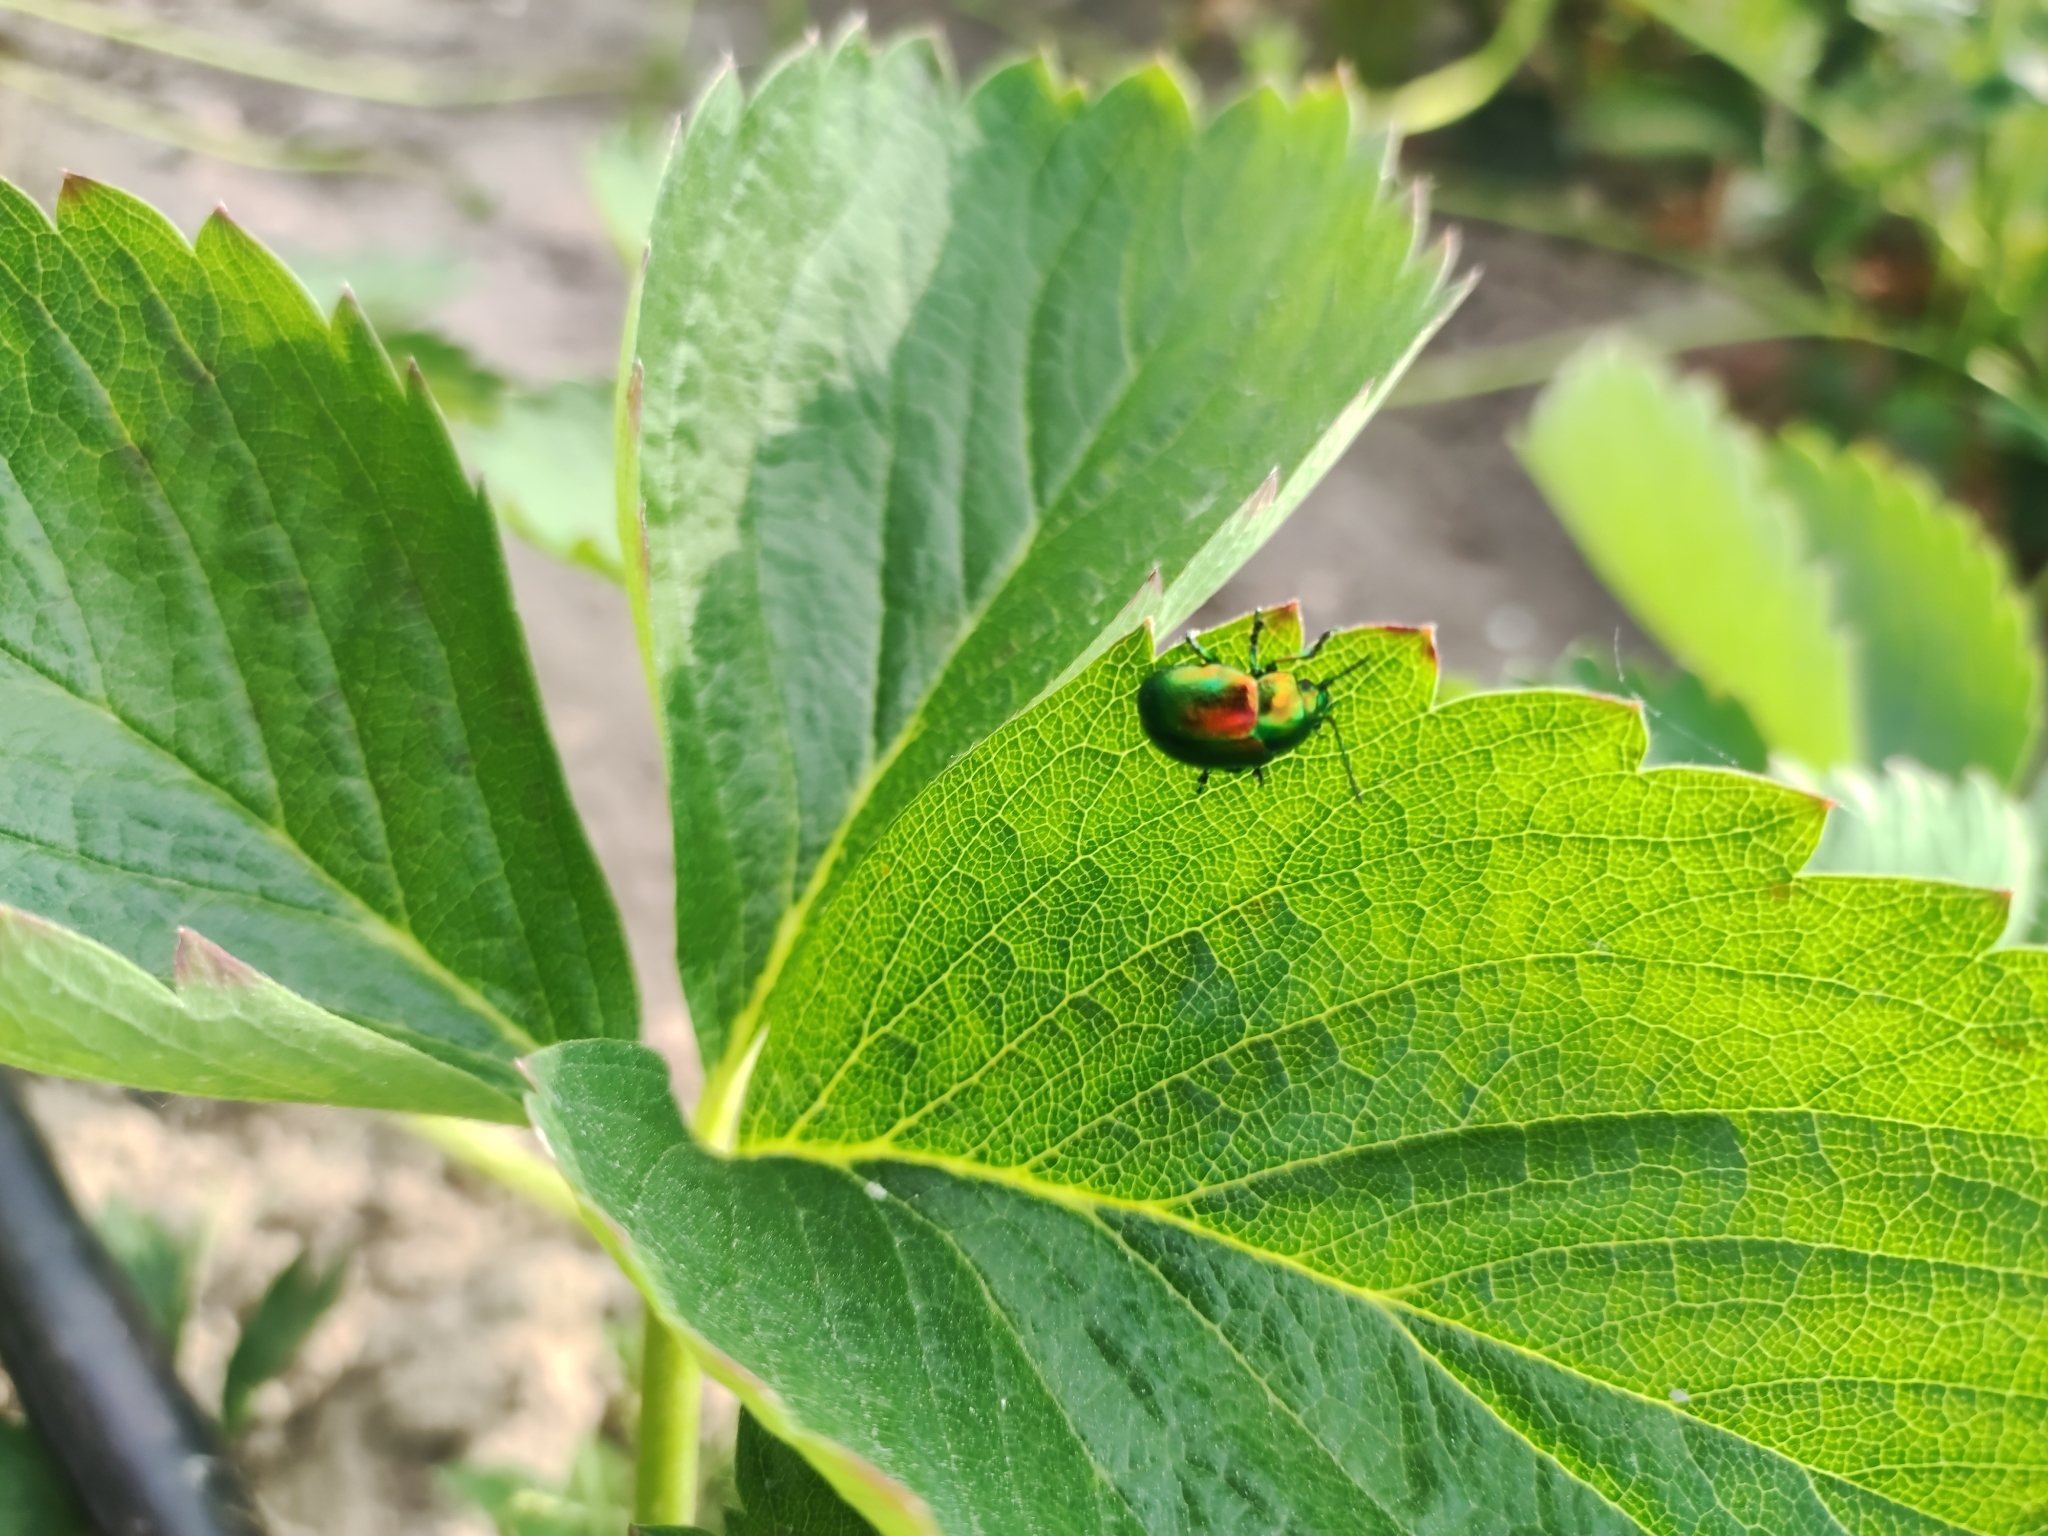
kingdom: Animalia
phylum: Arthropoda
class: Insecta
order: Coleoptera
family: Chrysomelidae
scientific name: Chrysomelidae
